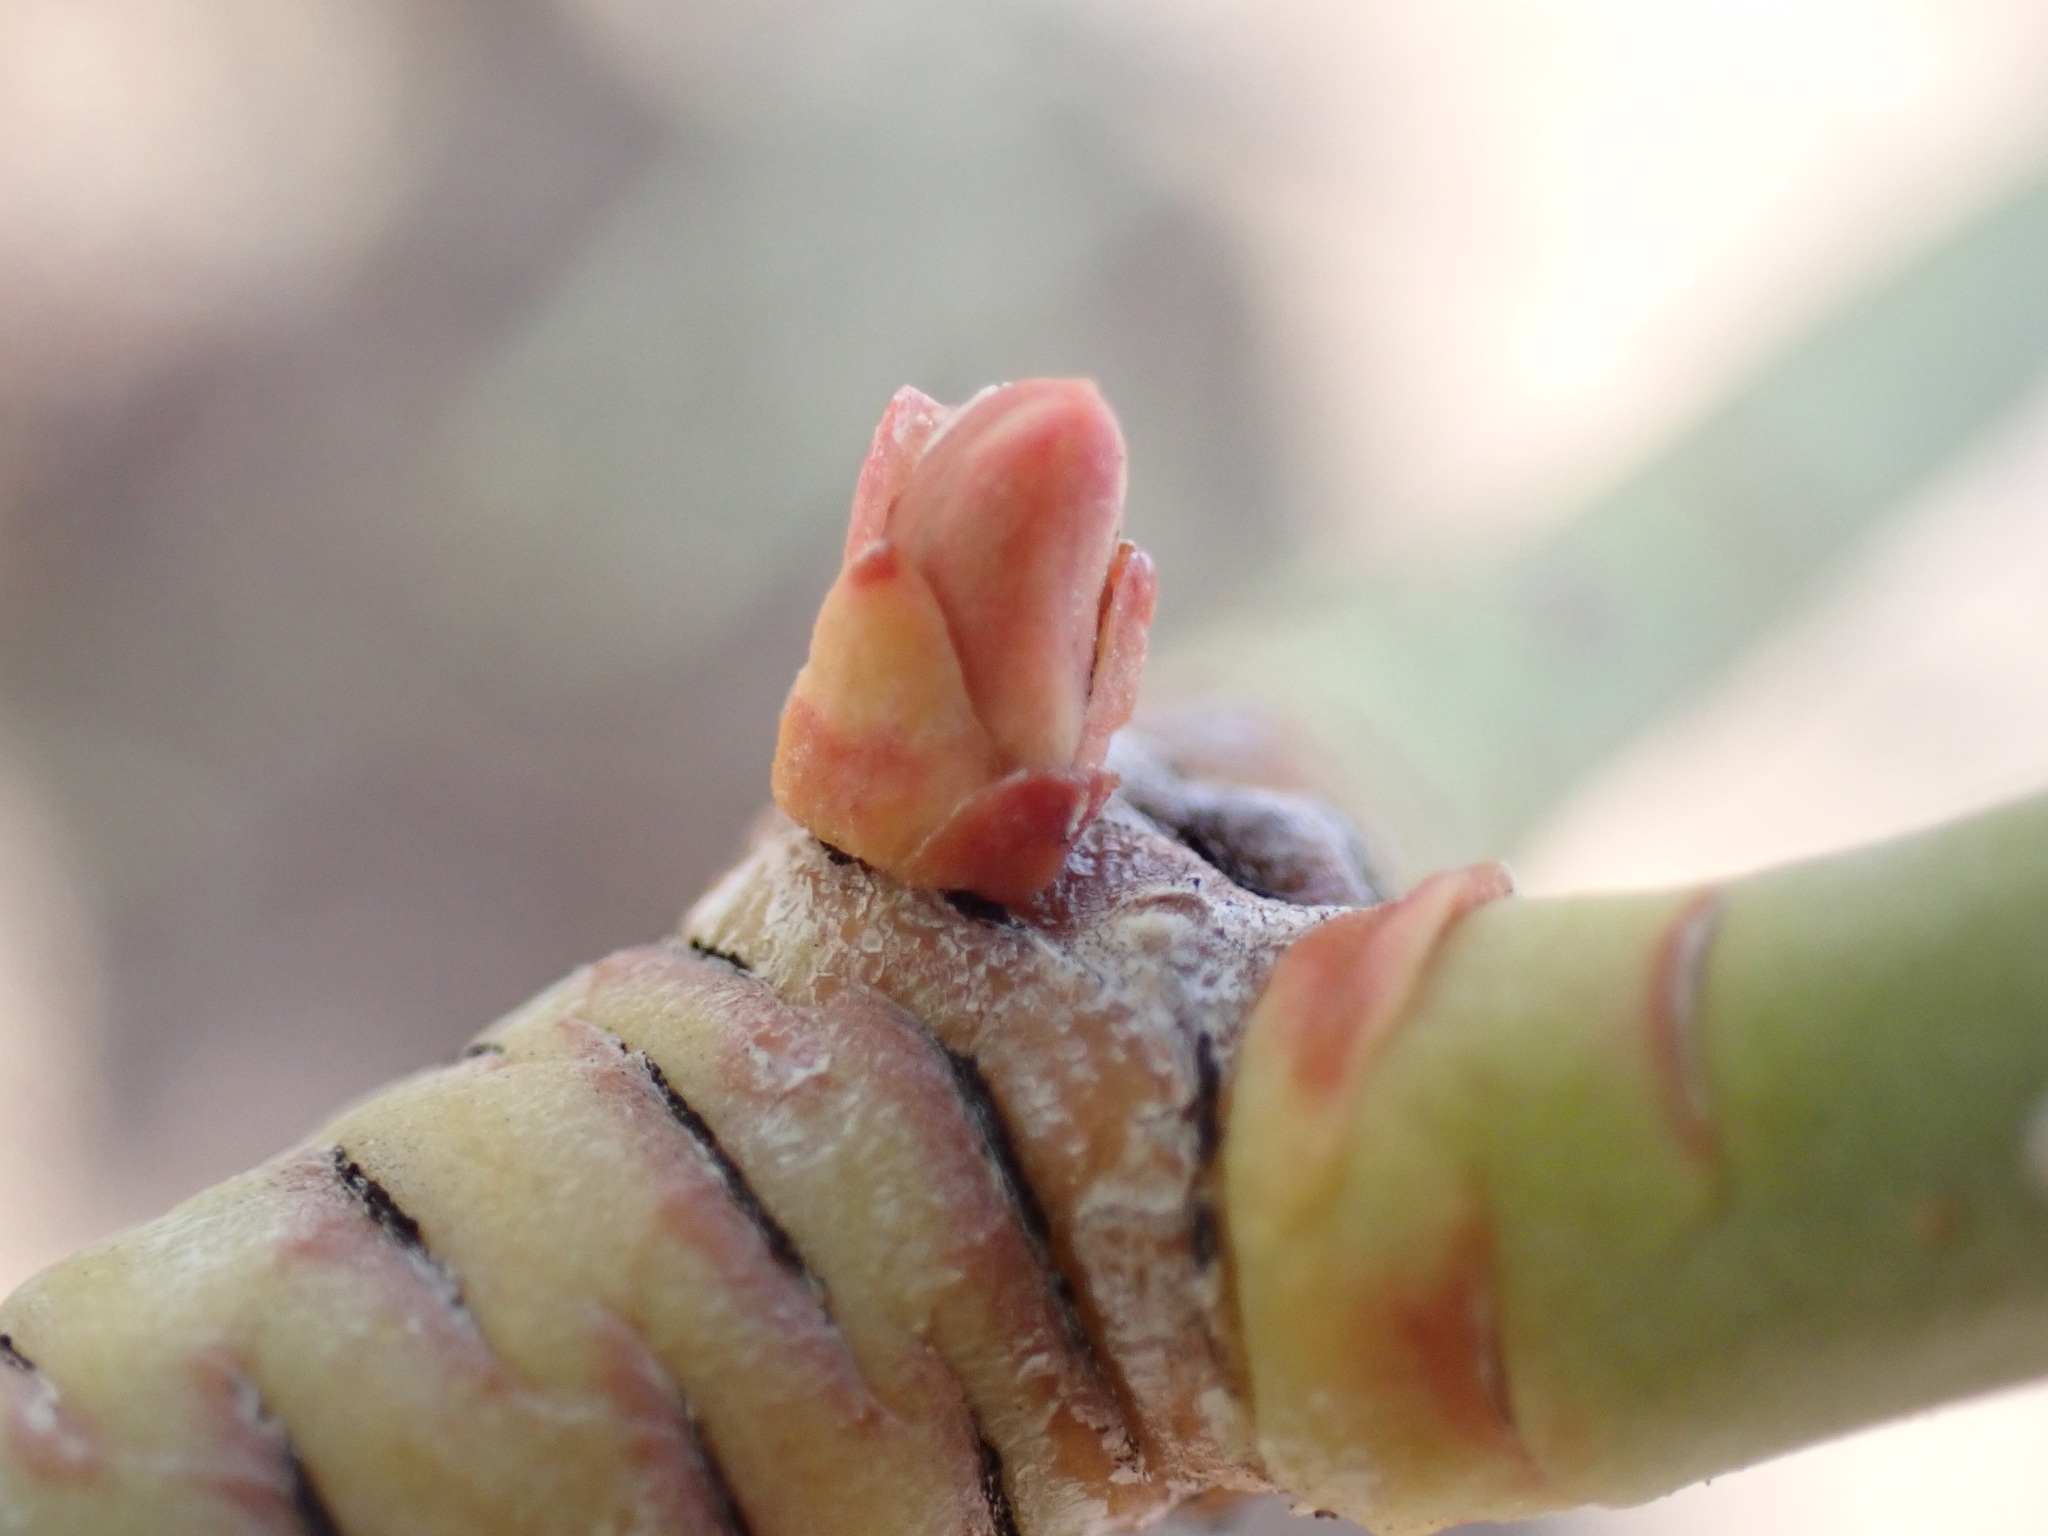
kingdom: Plantae
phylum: Tracheophyta
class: Magnoliopsida
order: Malpighiales
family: Euphorbiaceae
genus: Euphorbia
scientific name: Euphorbia lamarckii
